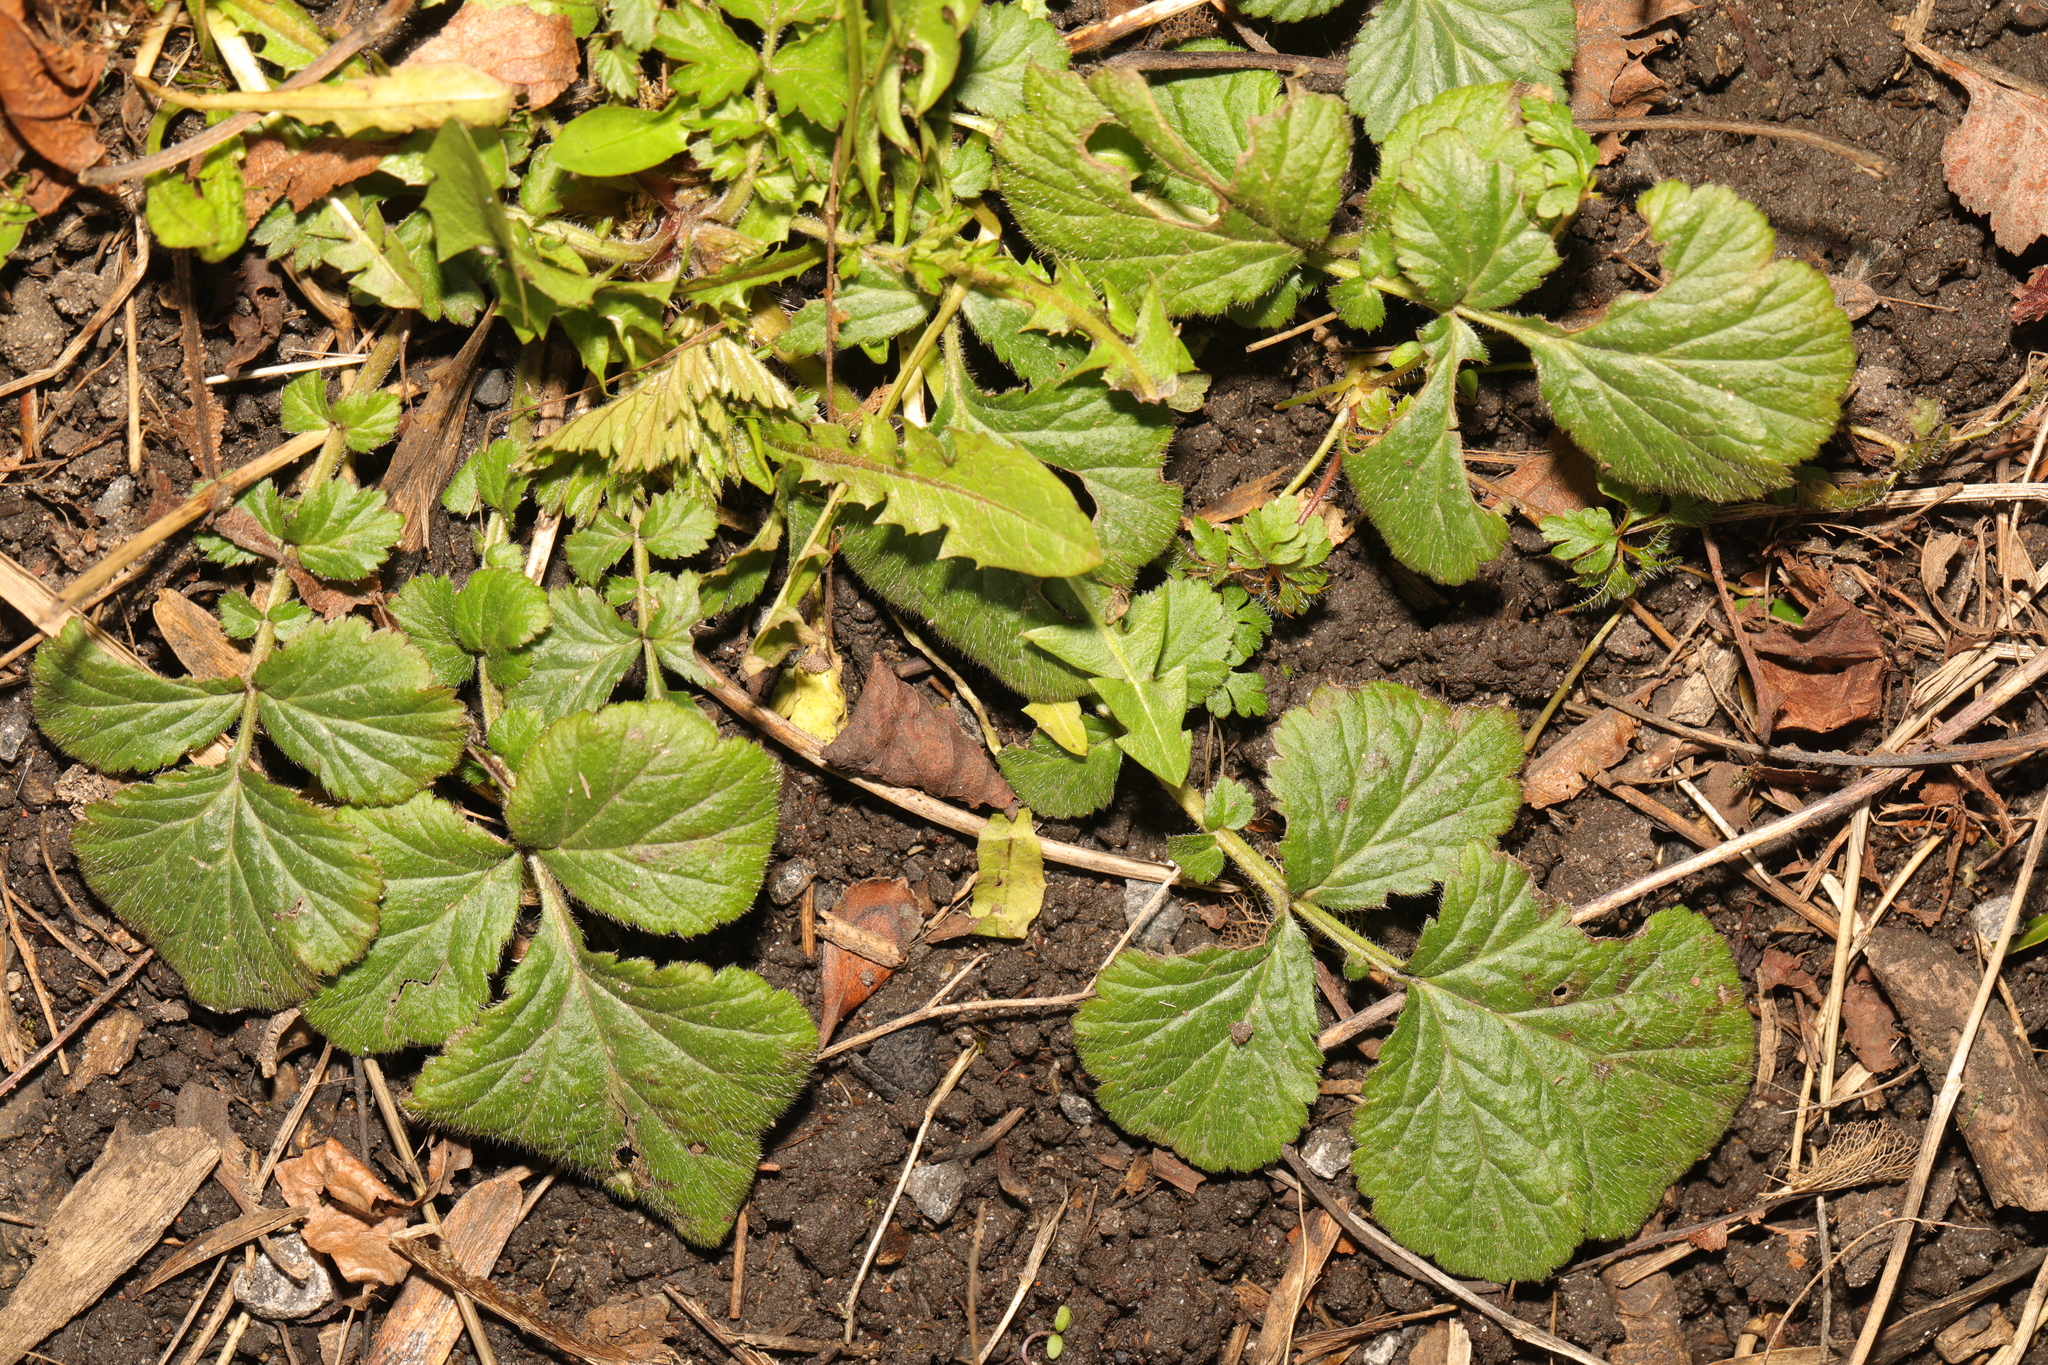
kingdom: Plantae
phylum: Tracheophyta
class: Magnoliopsida
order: Rosales
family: Rosaceae
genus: Geum
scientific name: Geum urbanum
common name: Wood avens
